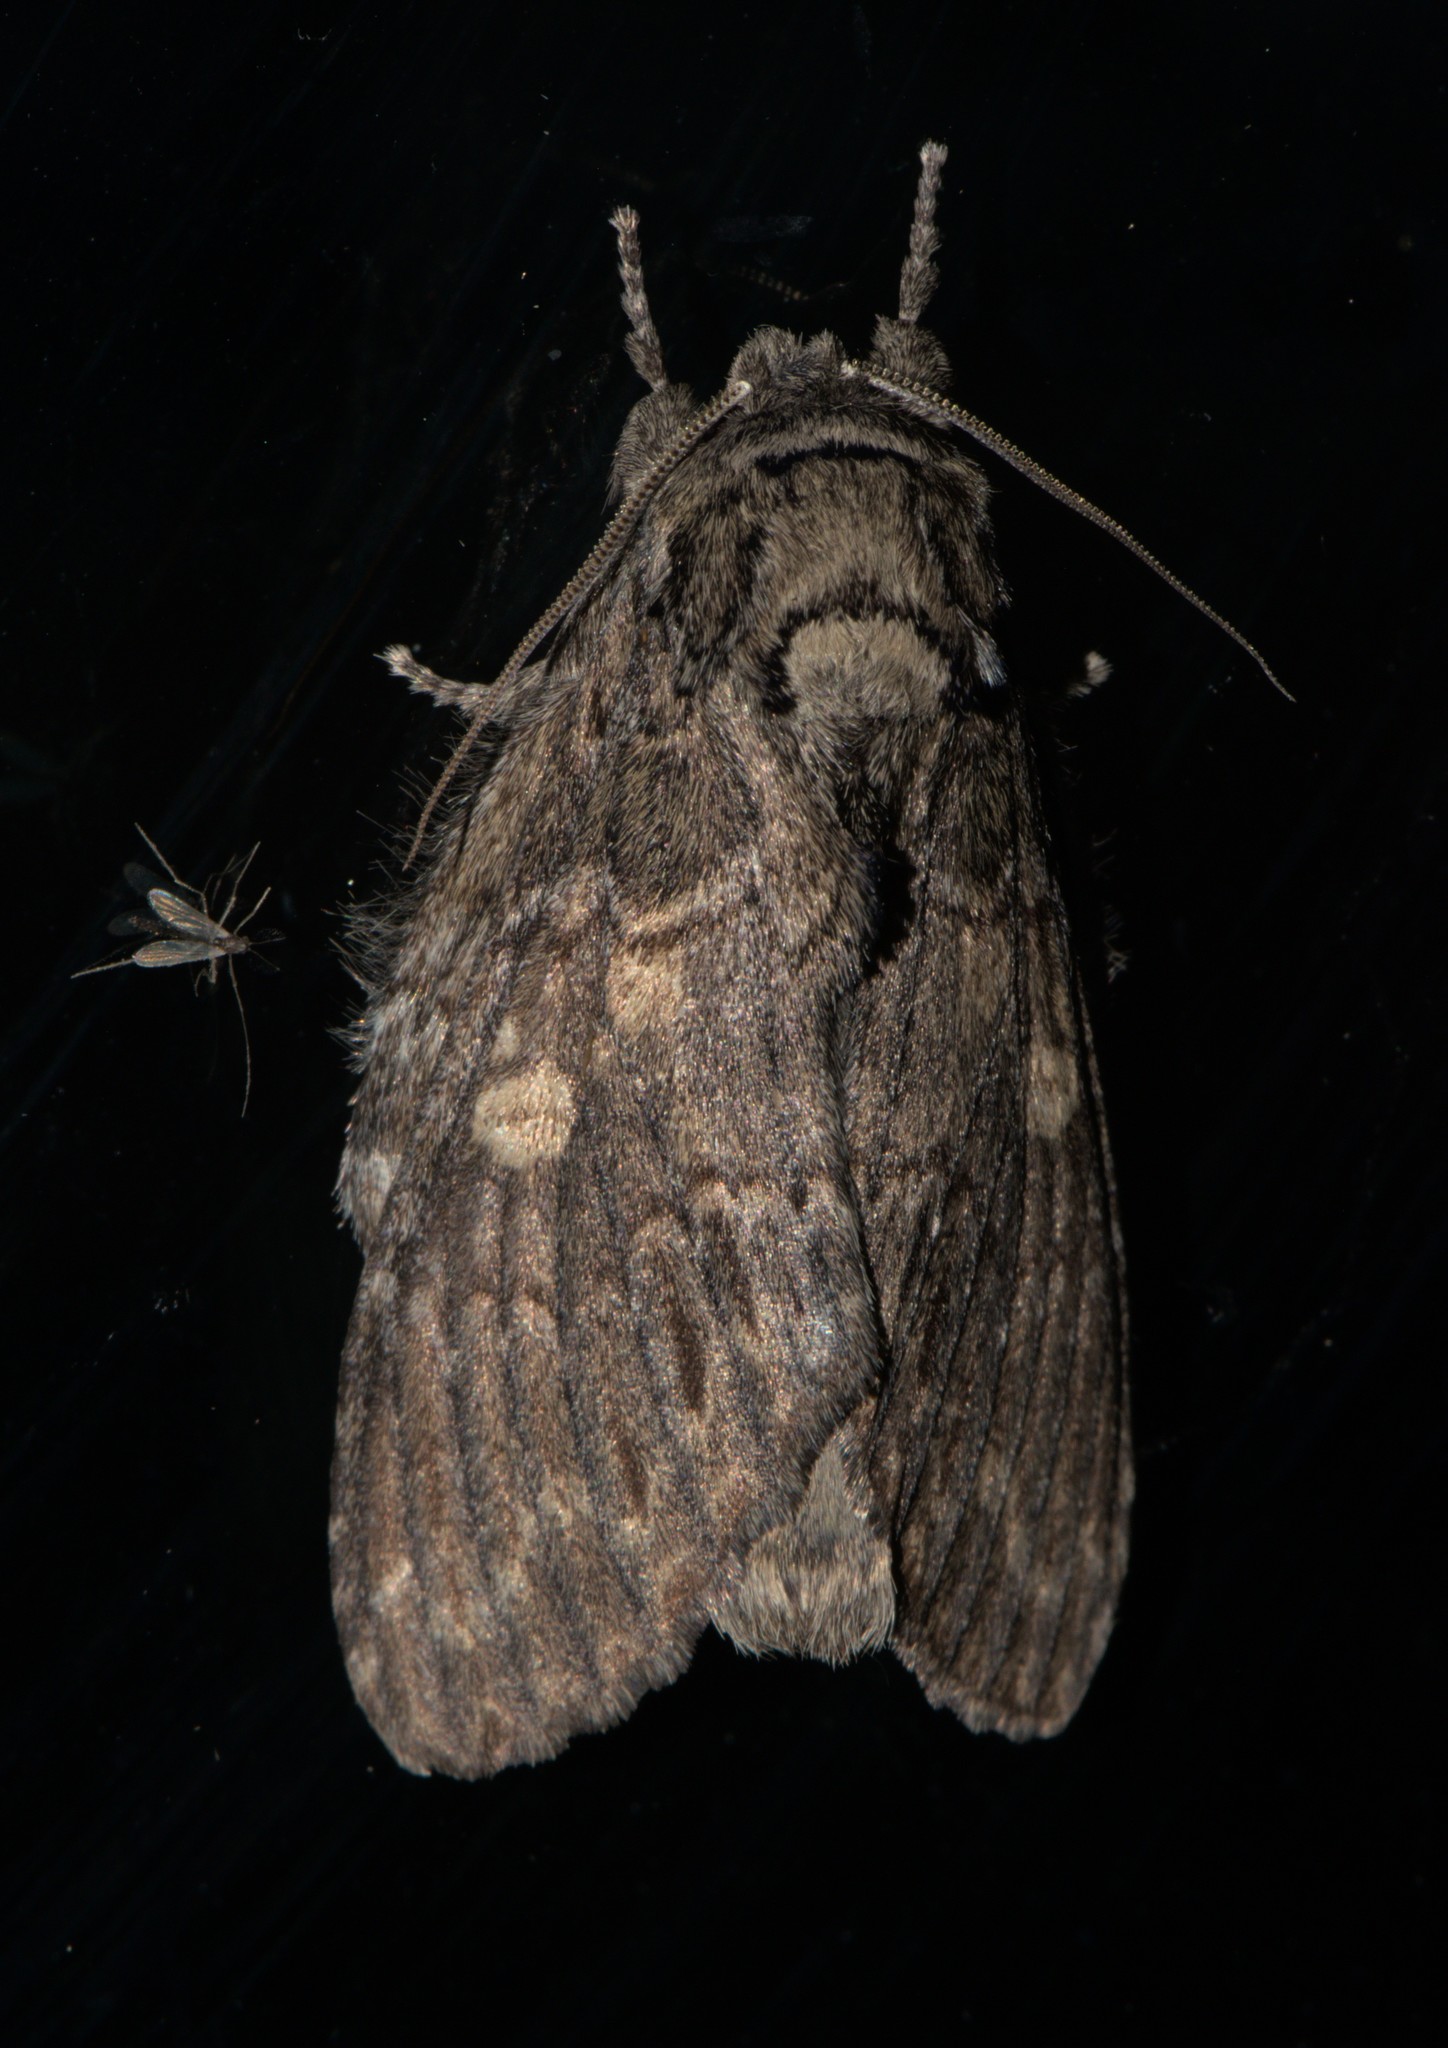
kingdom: Animalia
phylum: Arthropoda
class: Insecta
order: Lepidoptera
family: Notodontidae
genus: Peridea
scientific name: Peridea swata
